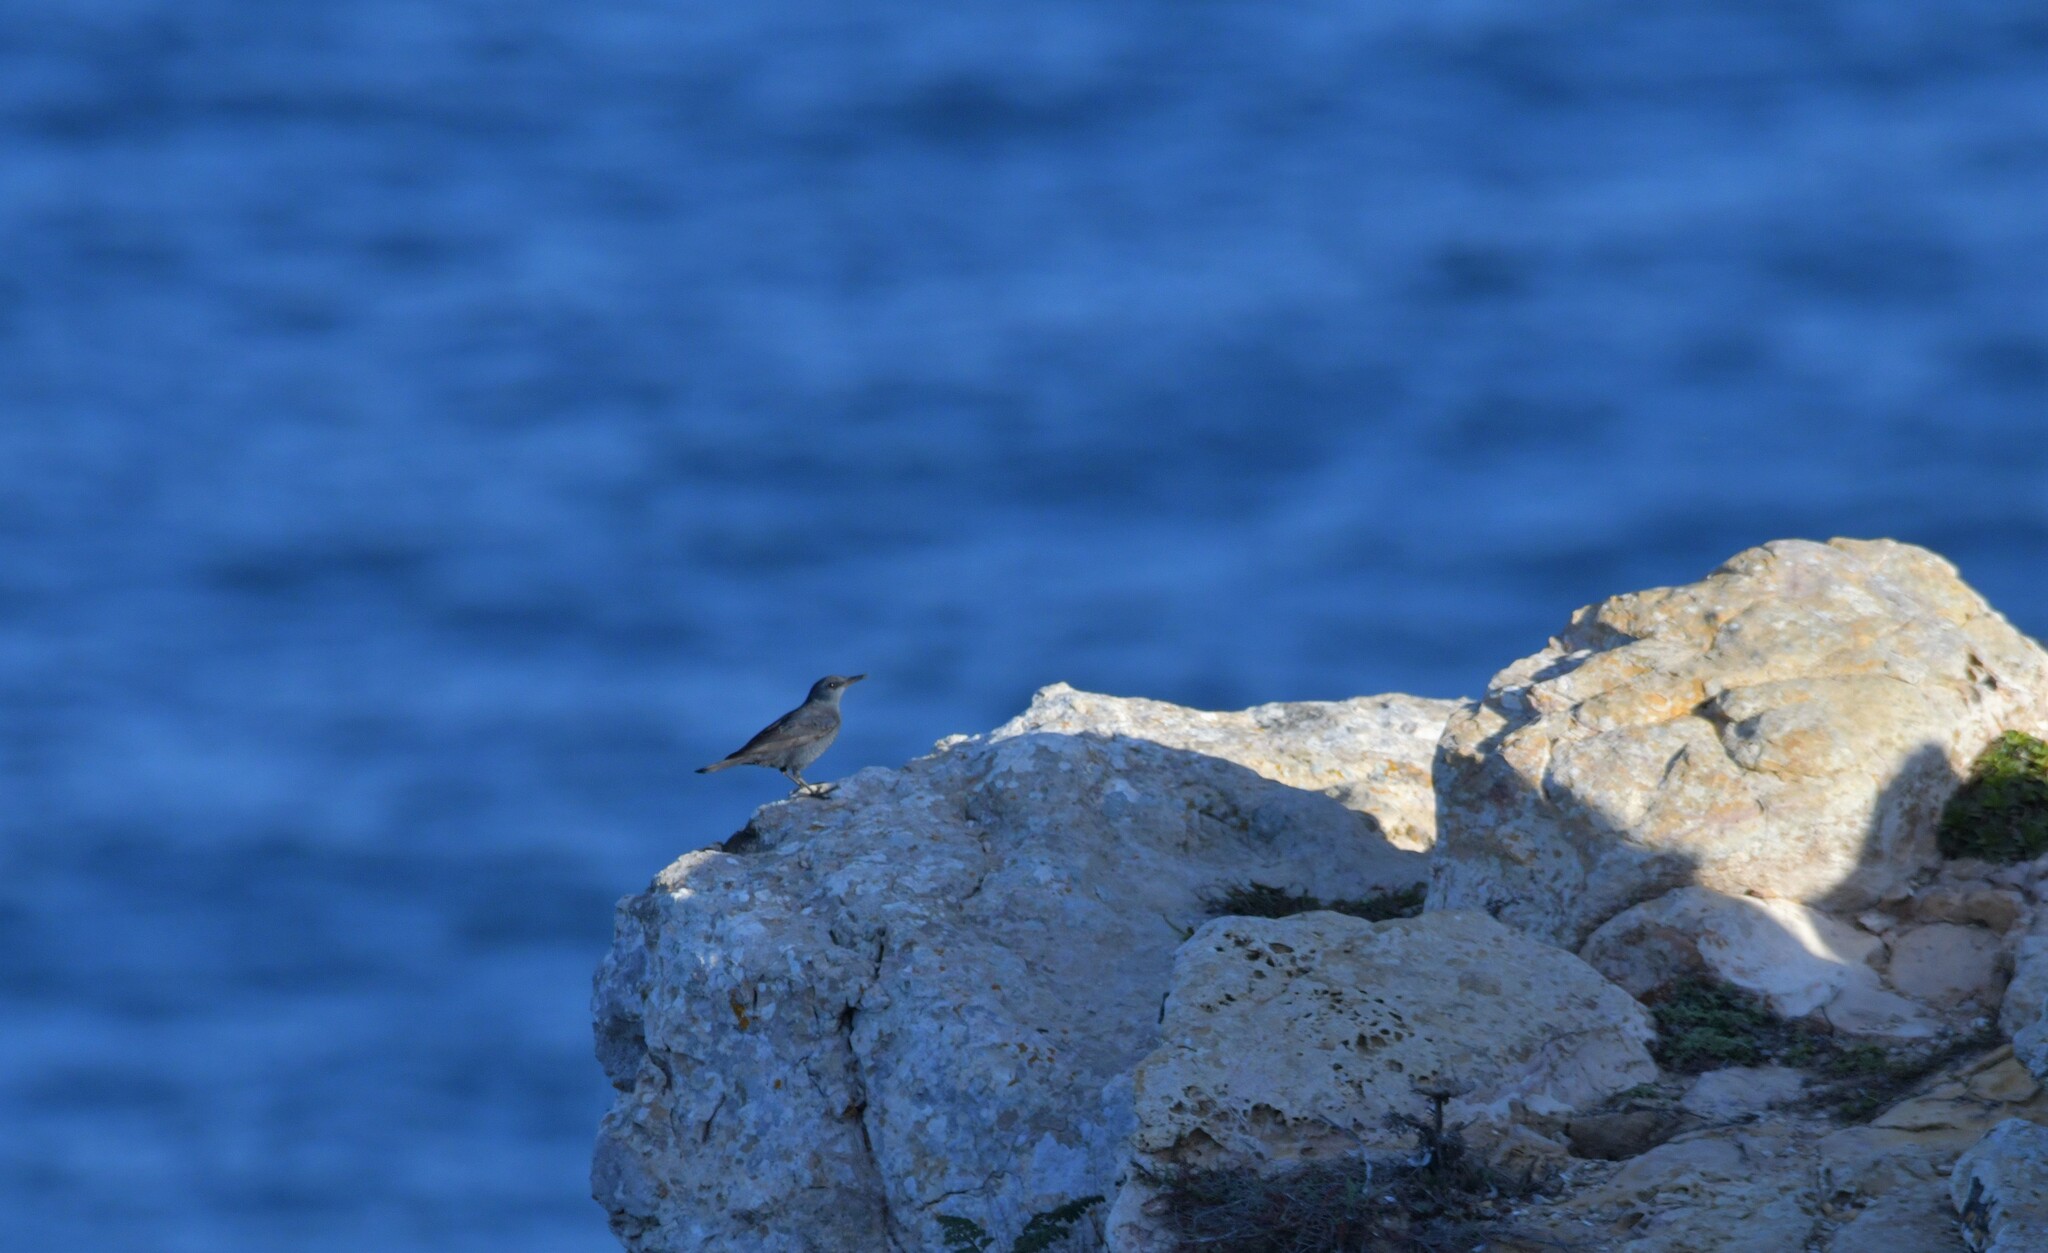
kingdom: Animalia
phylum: Chordata
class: Aves
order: Passeriformes
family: Muscicapidae
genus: Monticola
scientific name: Monticola solitarius
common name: Blue rock thrush
